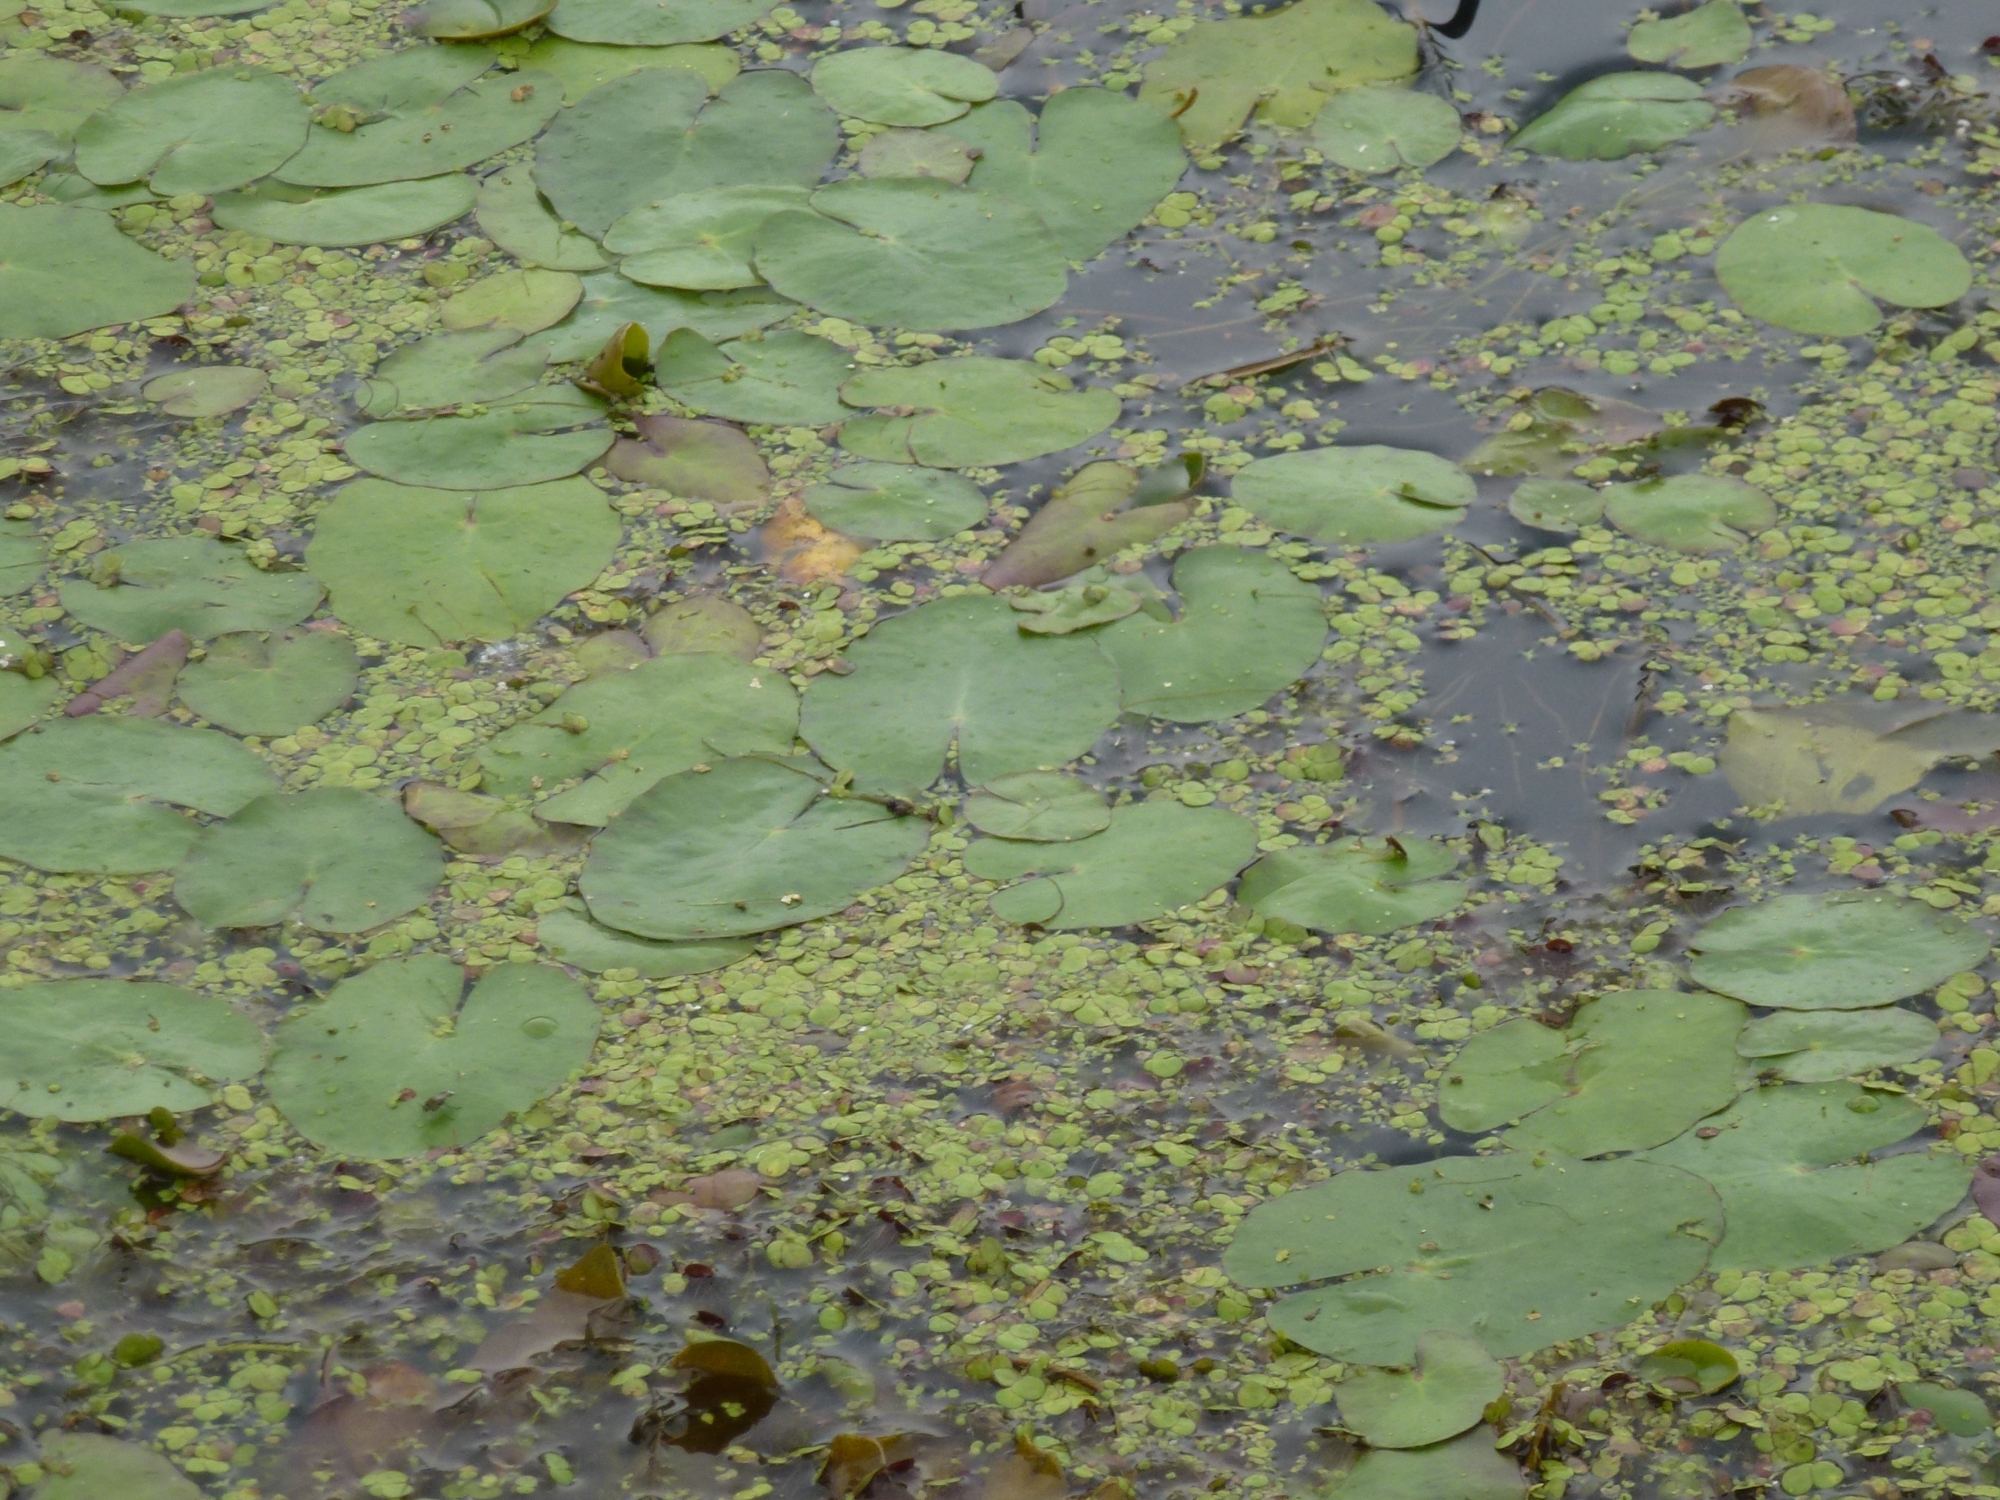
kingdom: Plantae
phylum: Tracheophyta
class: Magnoliopsida
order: Asterales
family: Menyanthaceae
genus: Nymphoides
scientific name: Nymphoides peltata
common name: Fringed water-lily
